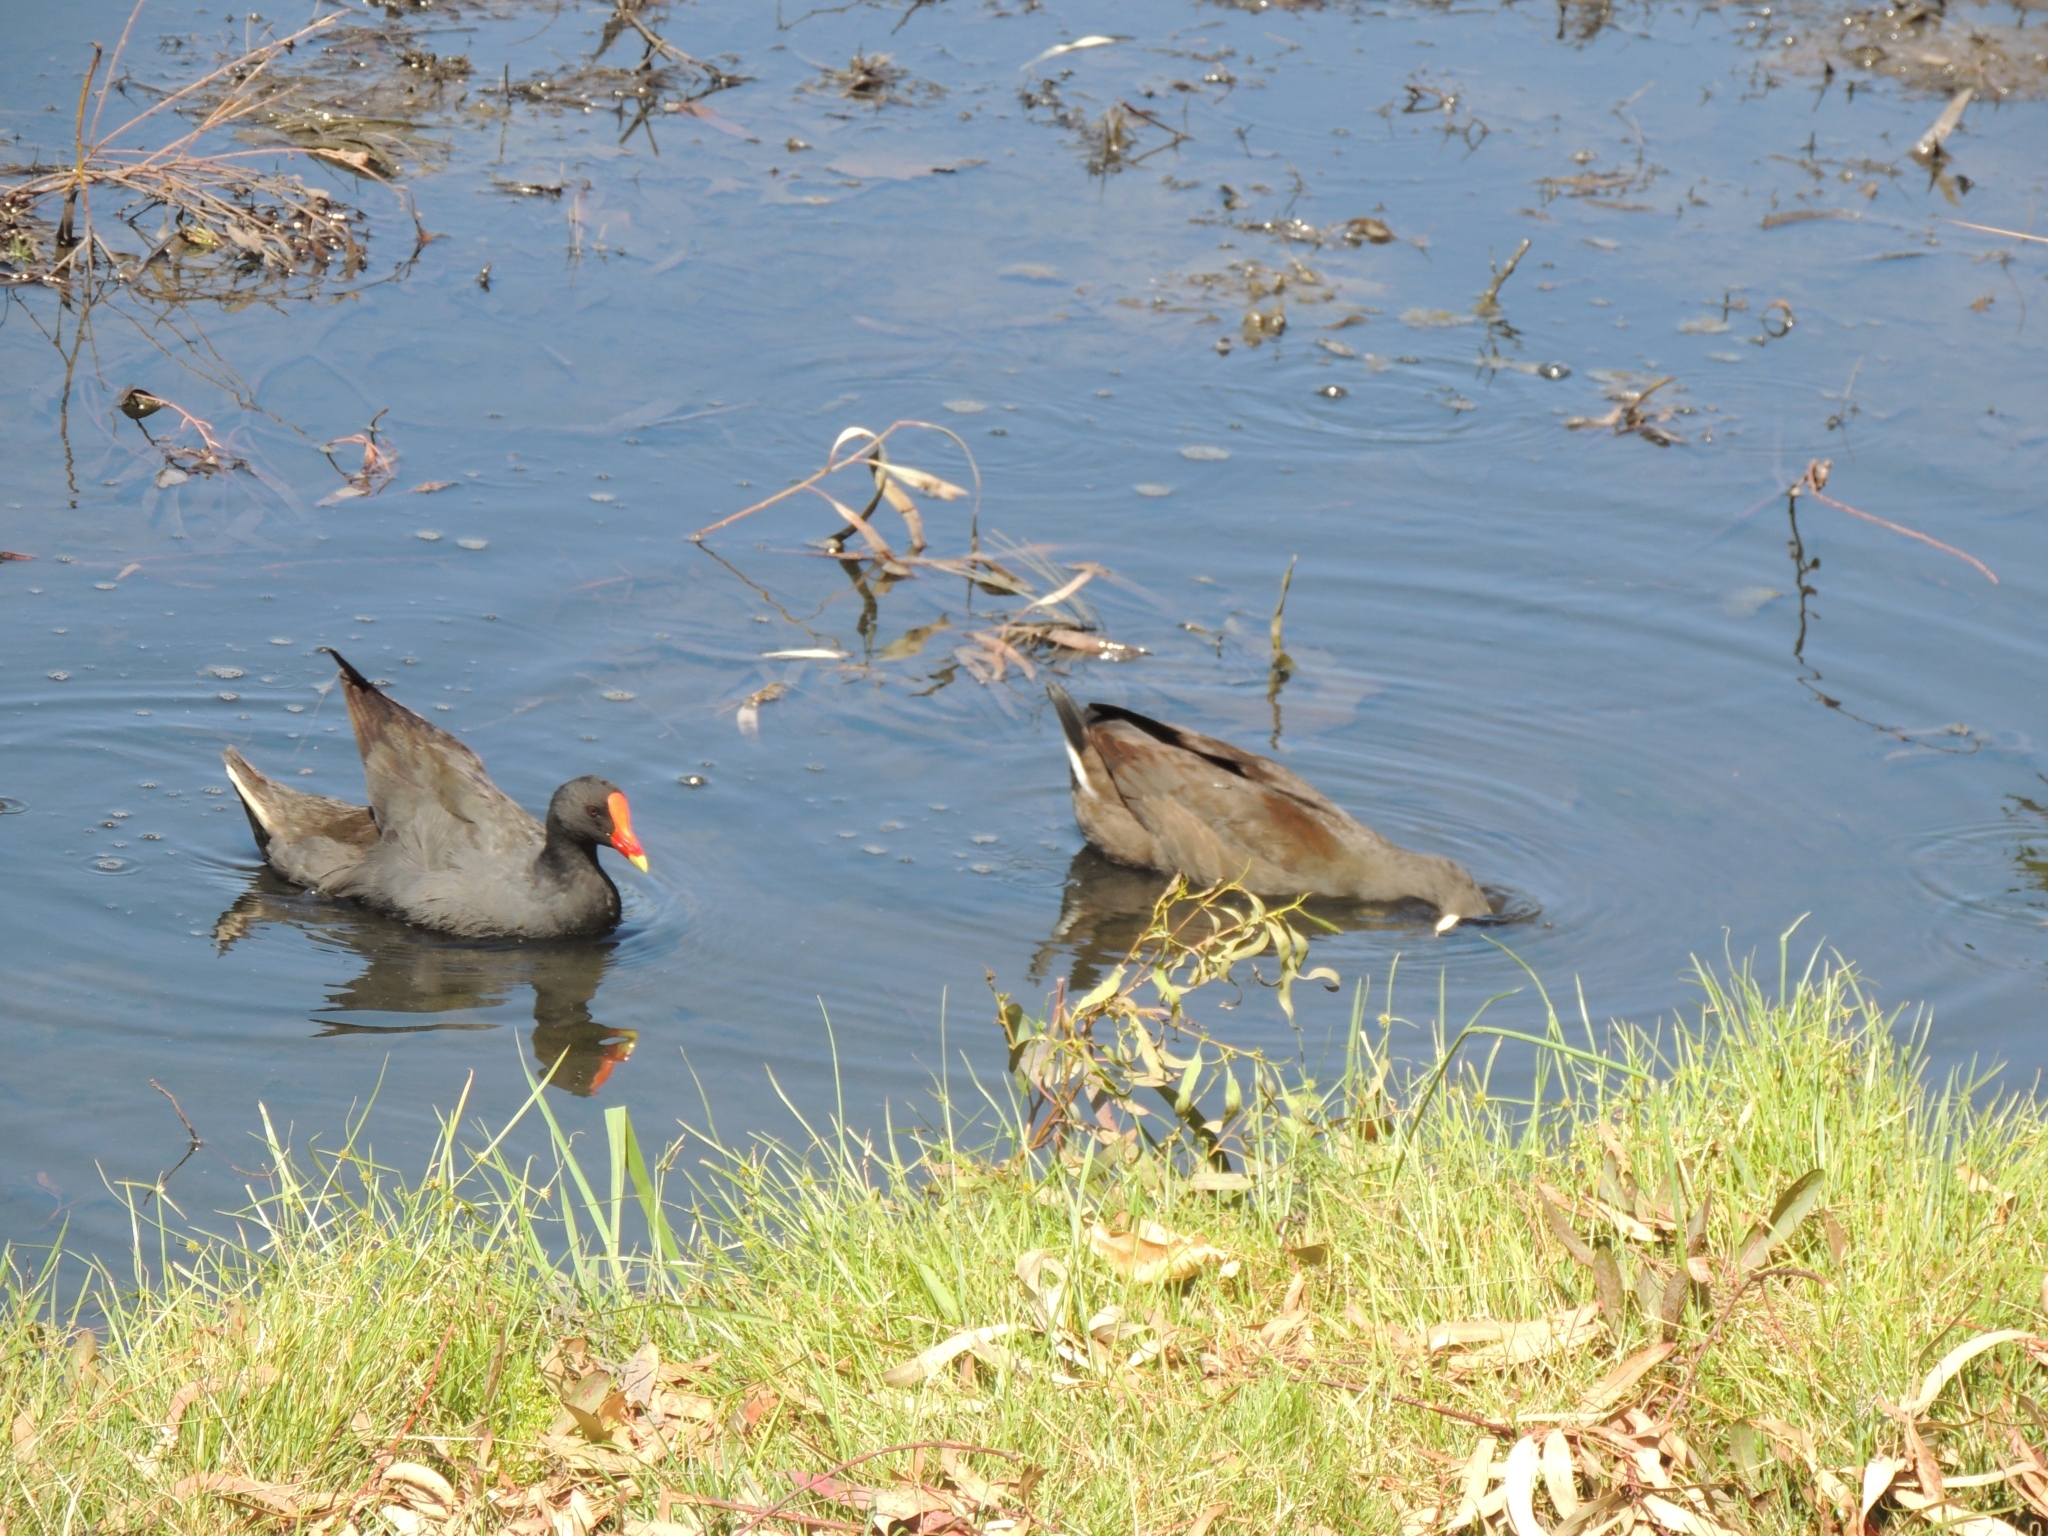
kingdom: Animalia
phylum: Chordata
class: Aves
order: Gruiformes
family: Rallidae
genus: Gallinula
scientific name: Gallinula tenebrosa
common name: Dusky moorhen
